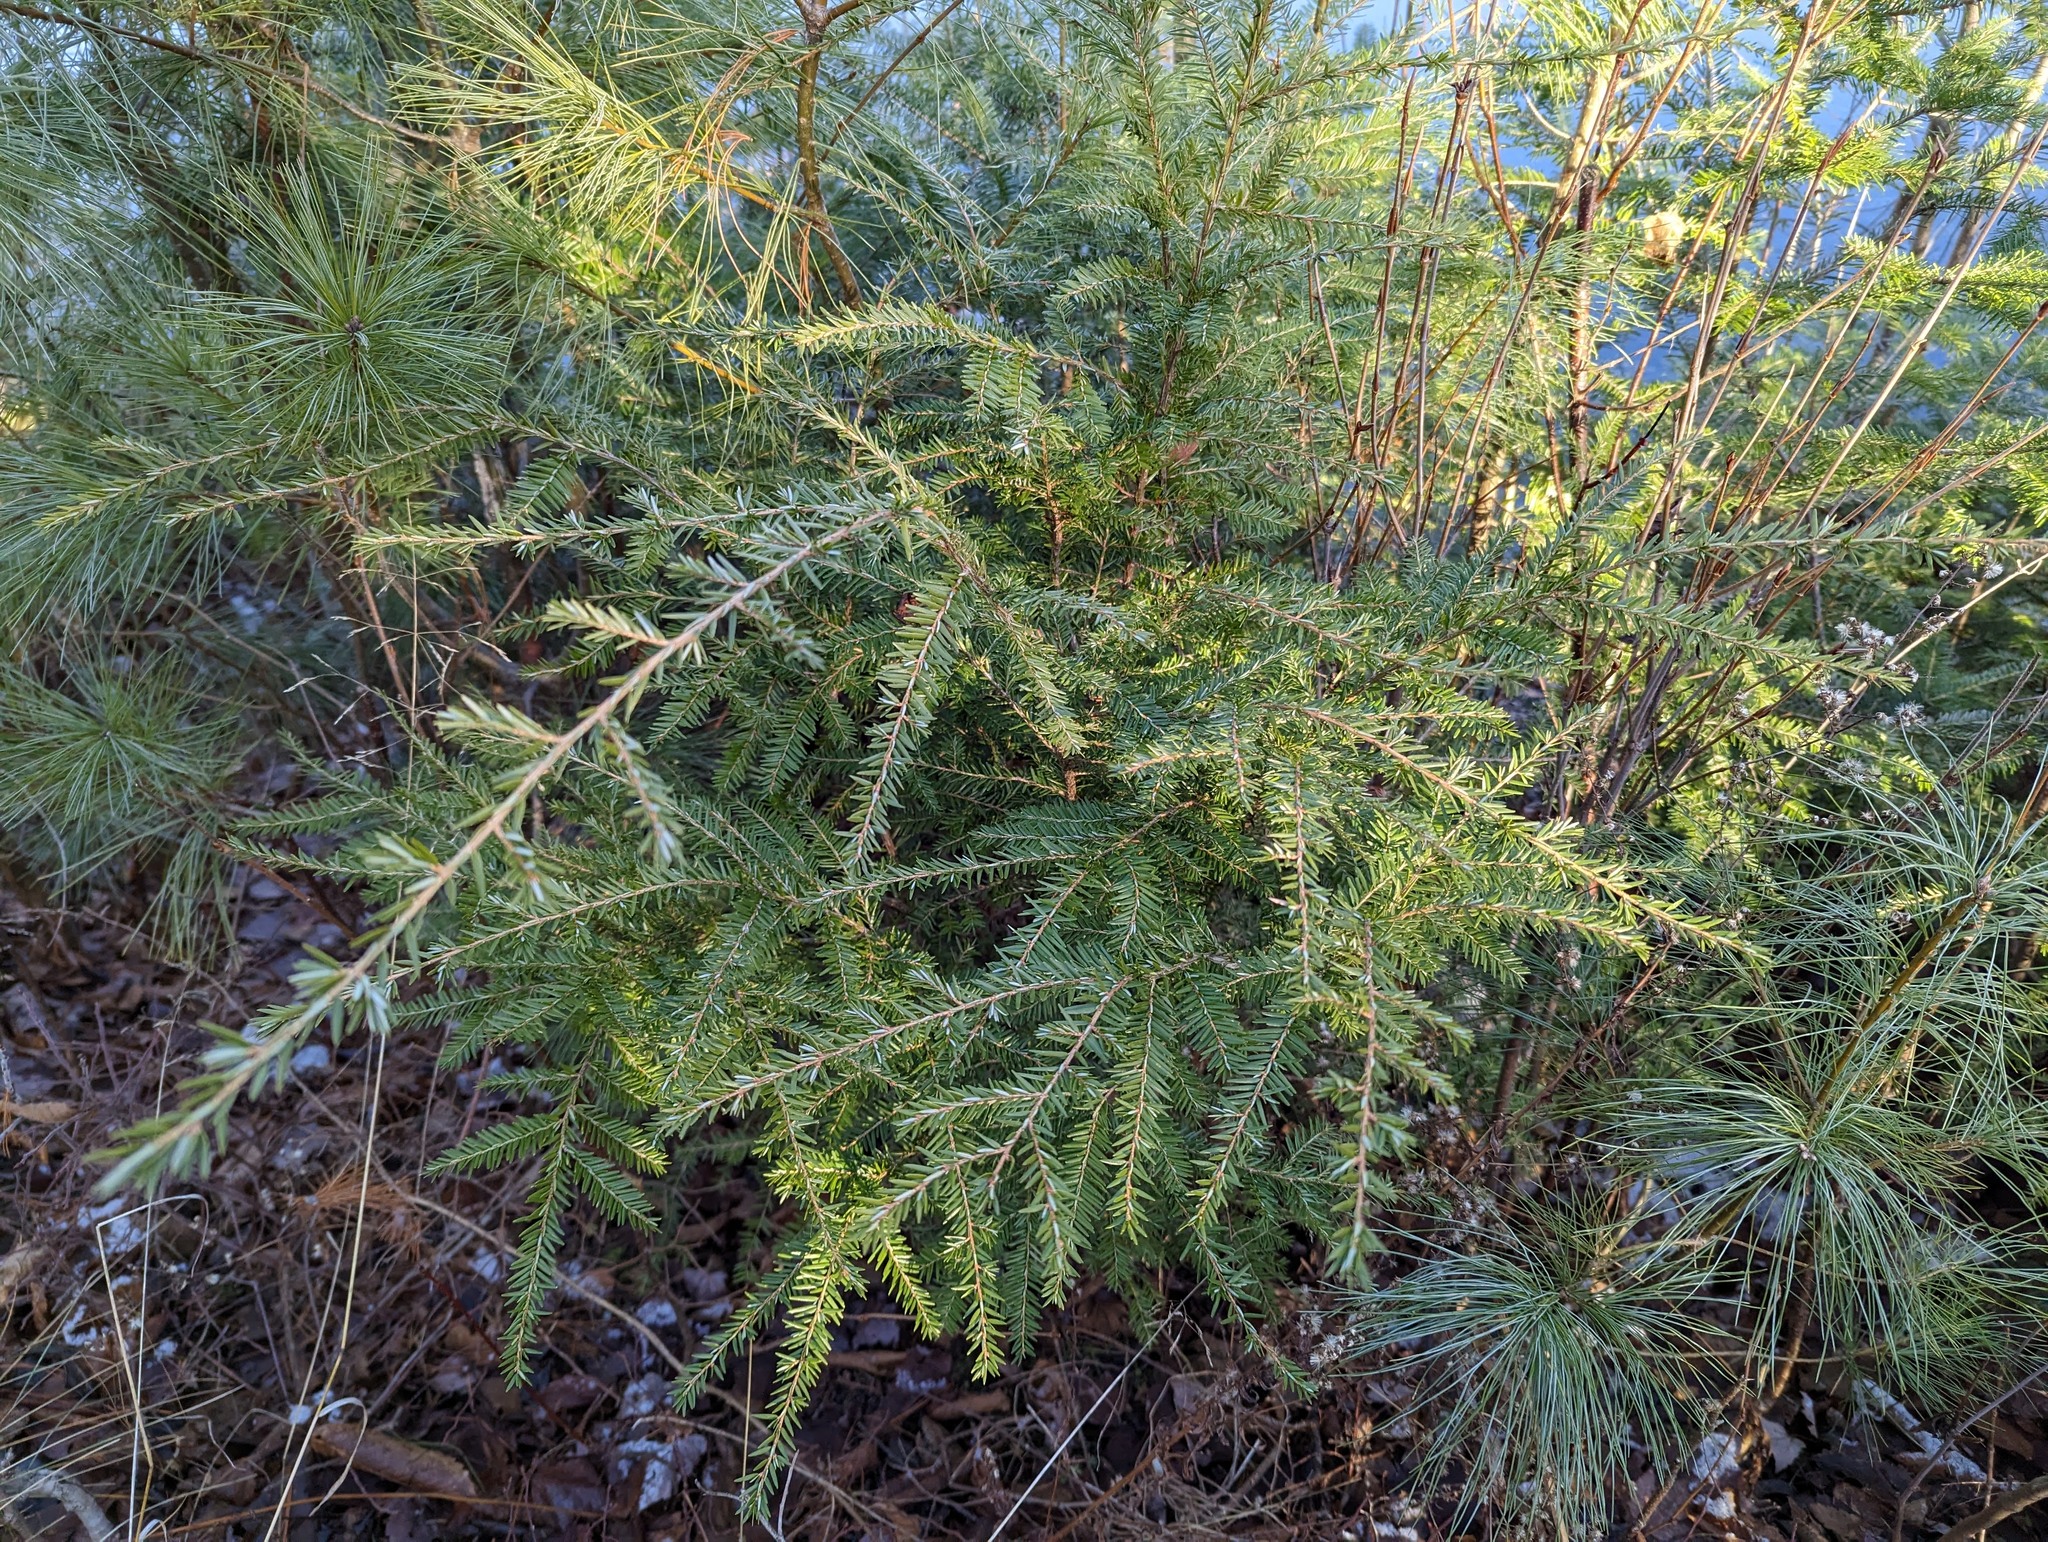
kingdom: Plantae
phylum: Tracheophyta
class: Pinopsida
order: Pinales
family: Pinaceae
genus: Tsuga
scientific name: Tsuga canadensis
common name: Eastern hemlock
